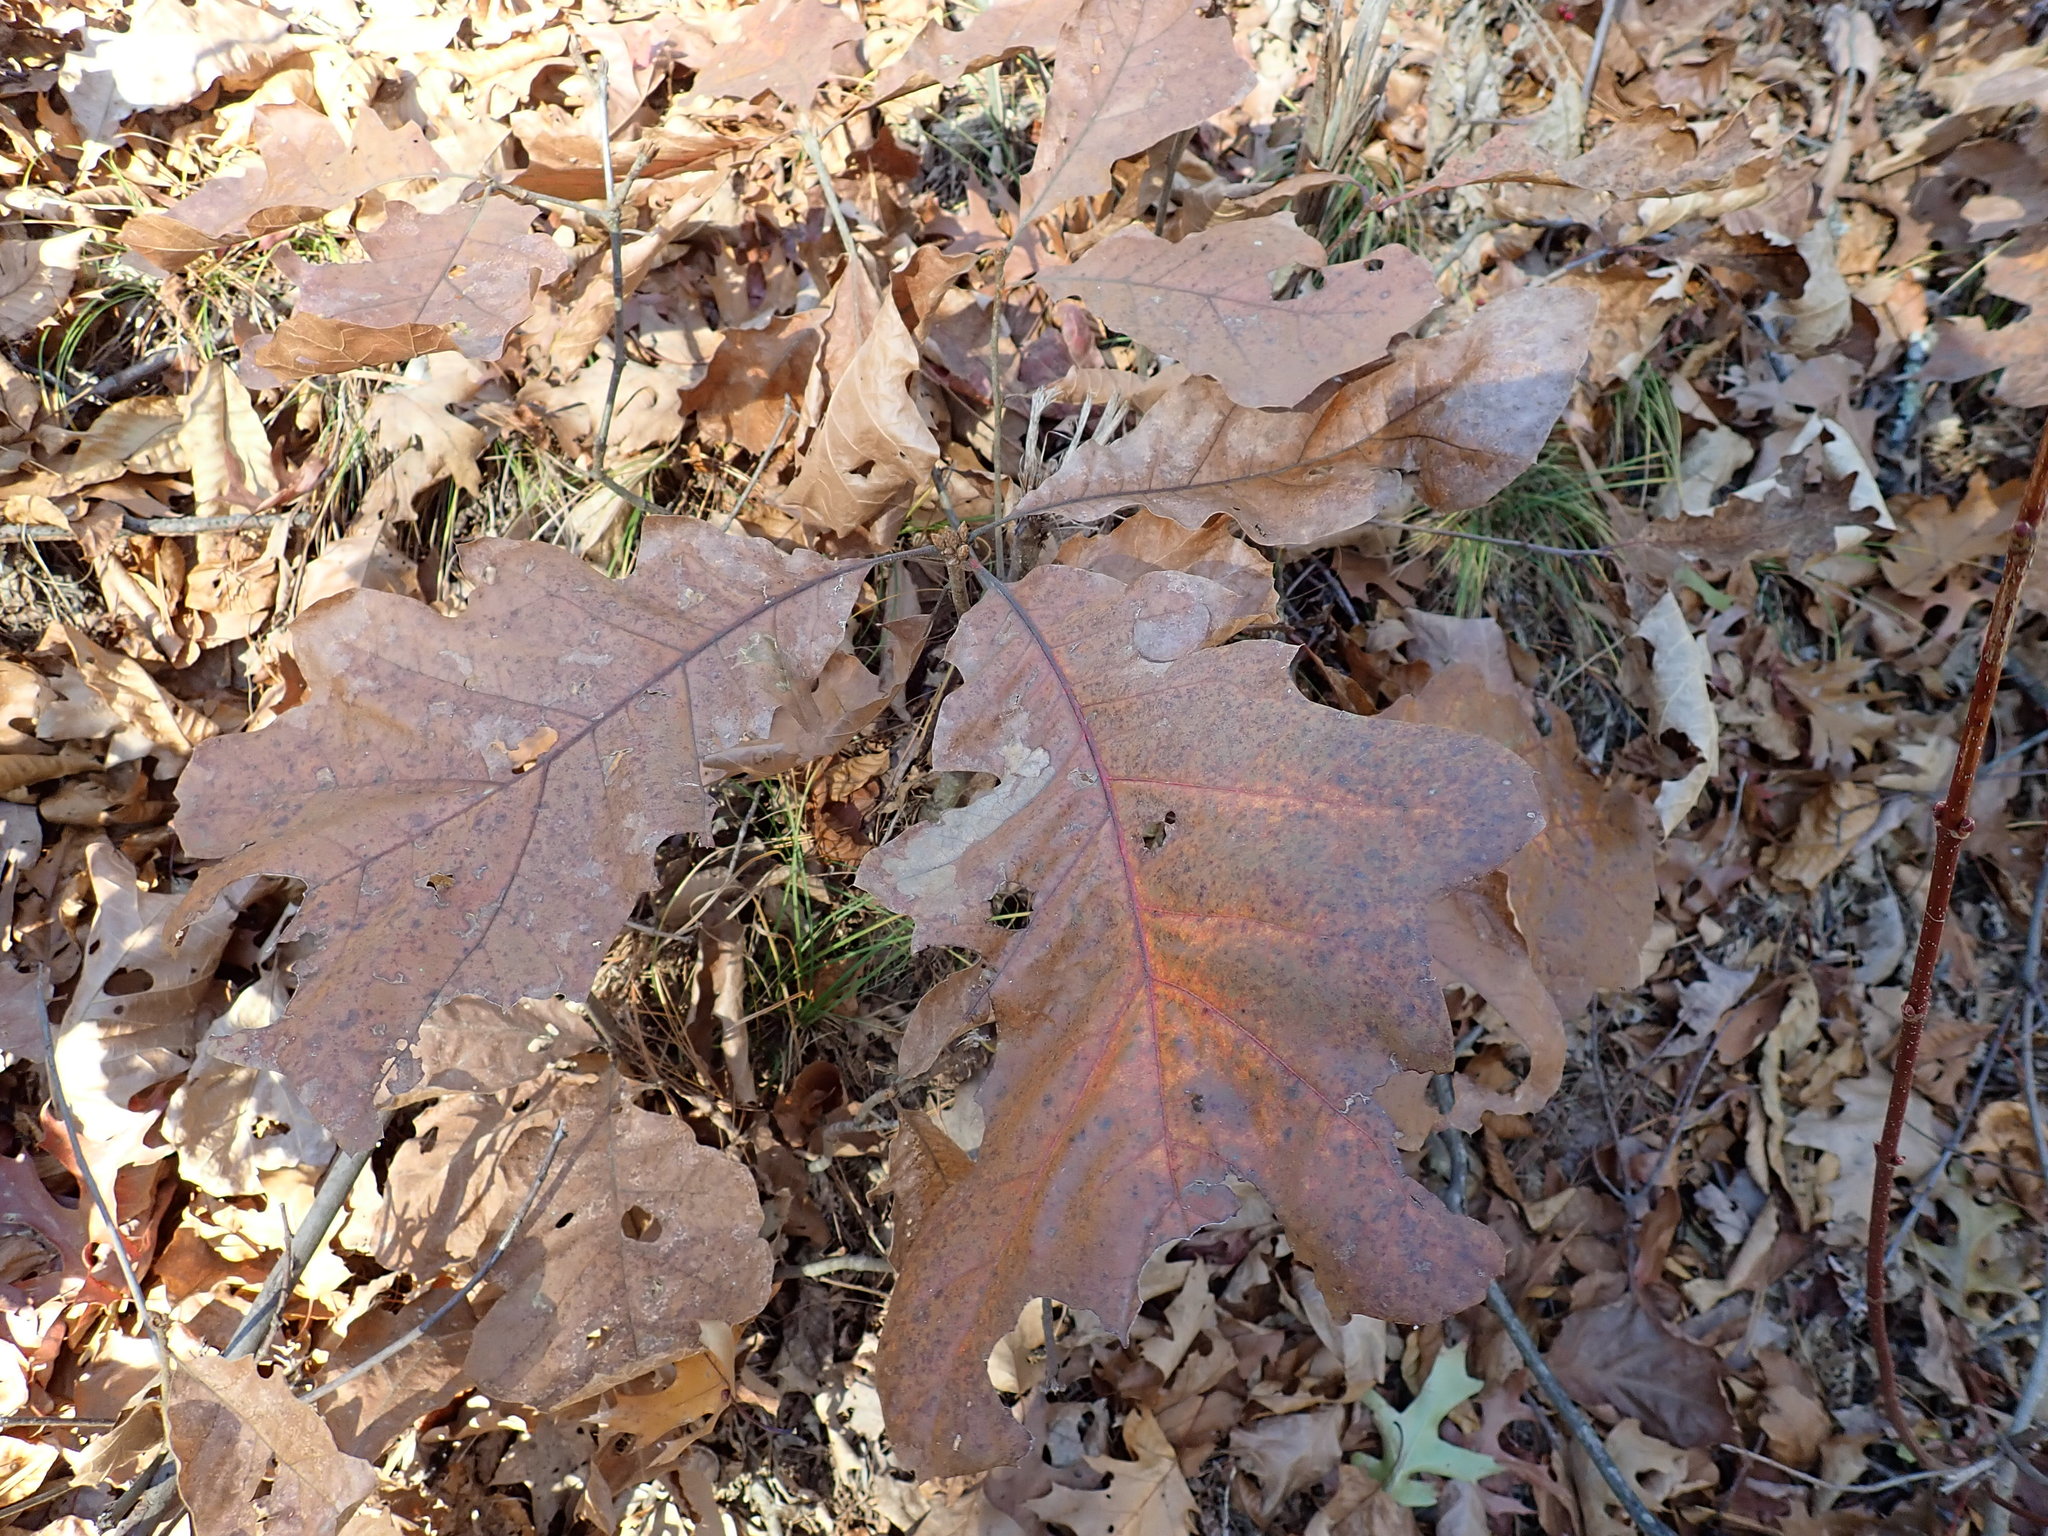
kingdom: Plantae
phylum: Tracheophyta
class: Magnoliopsida
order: Fagales
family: Fagaceae
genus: Quercus
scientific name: Quercus velutina
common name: Black oak
